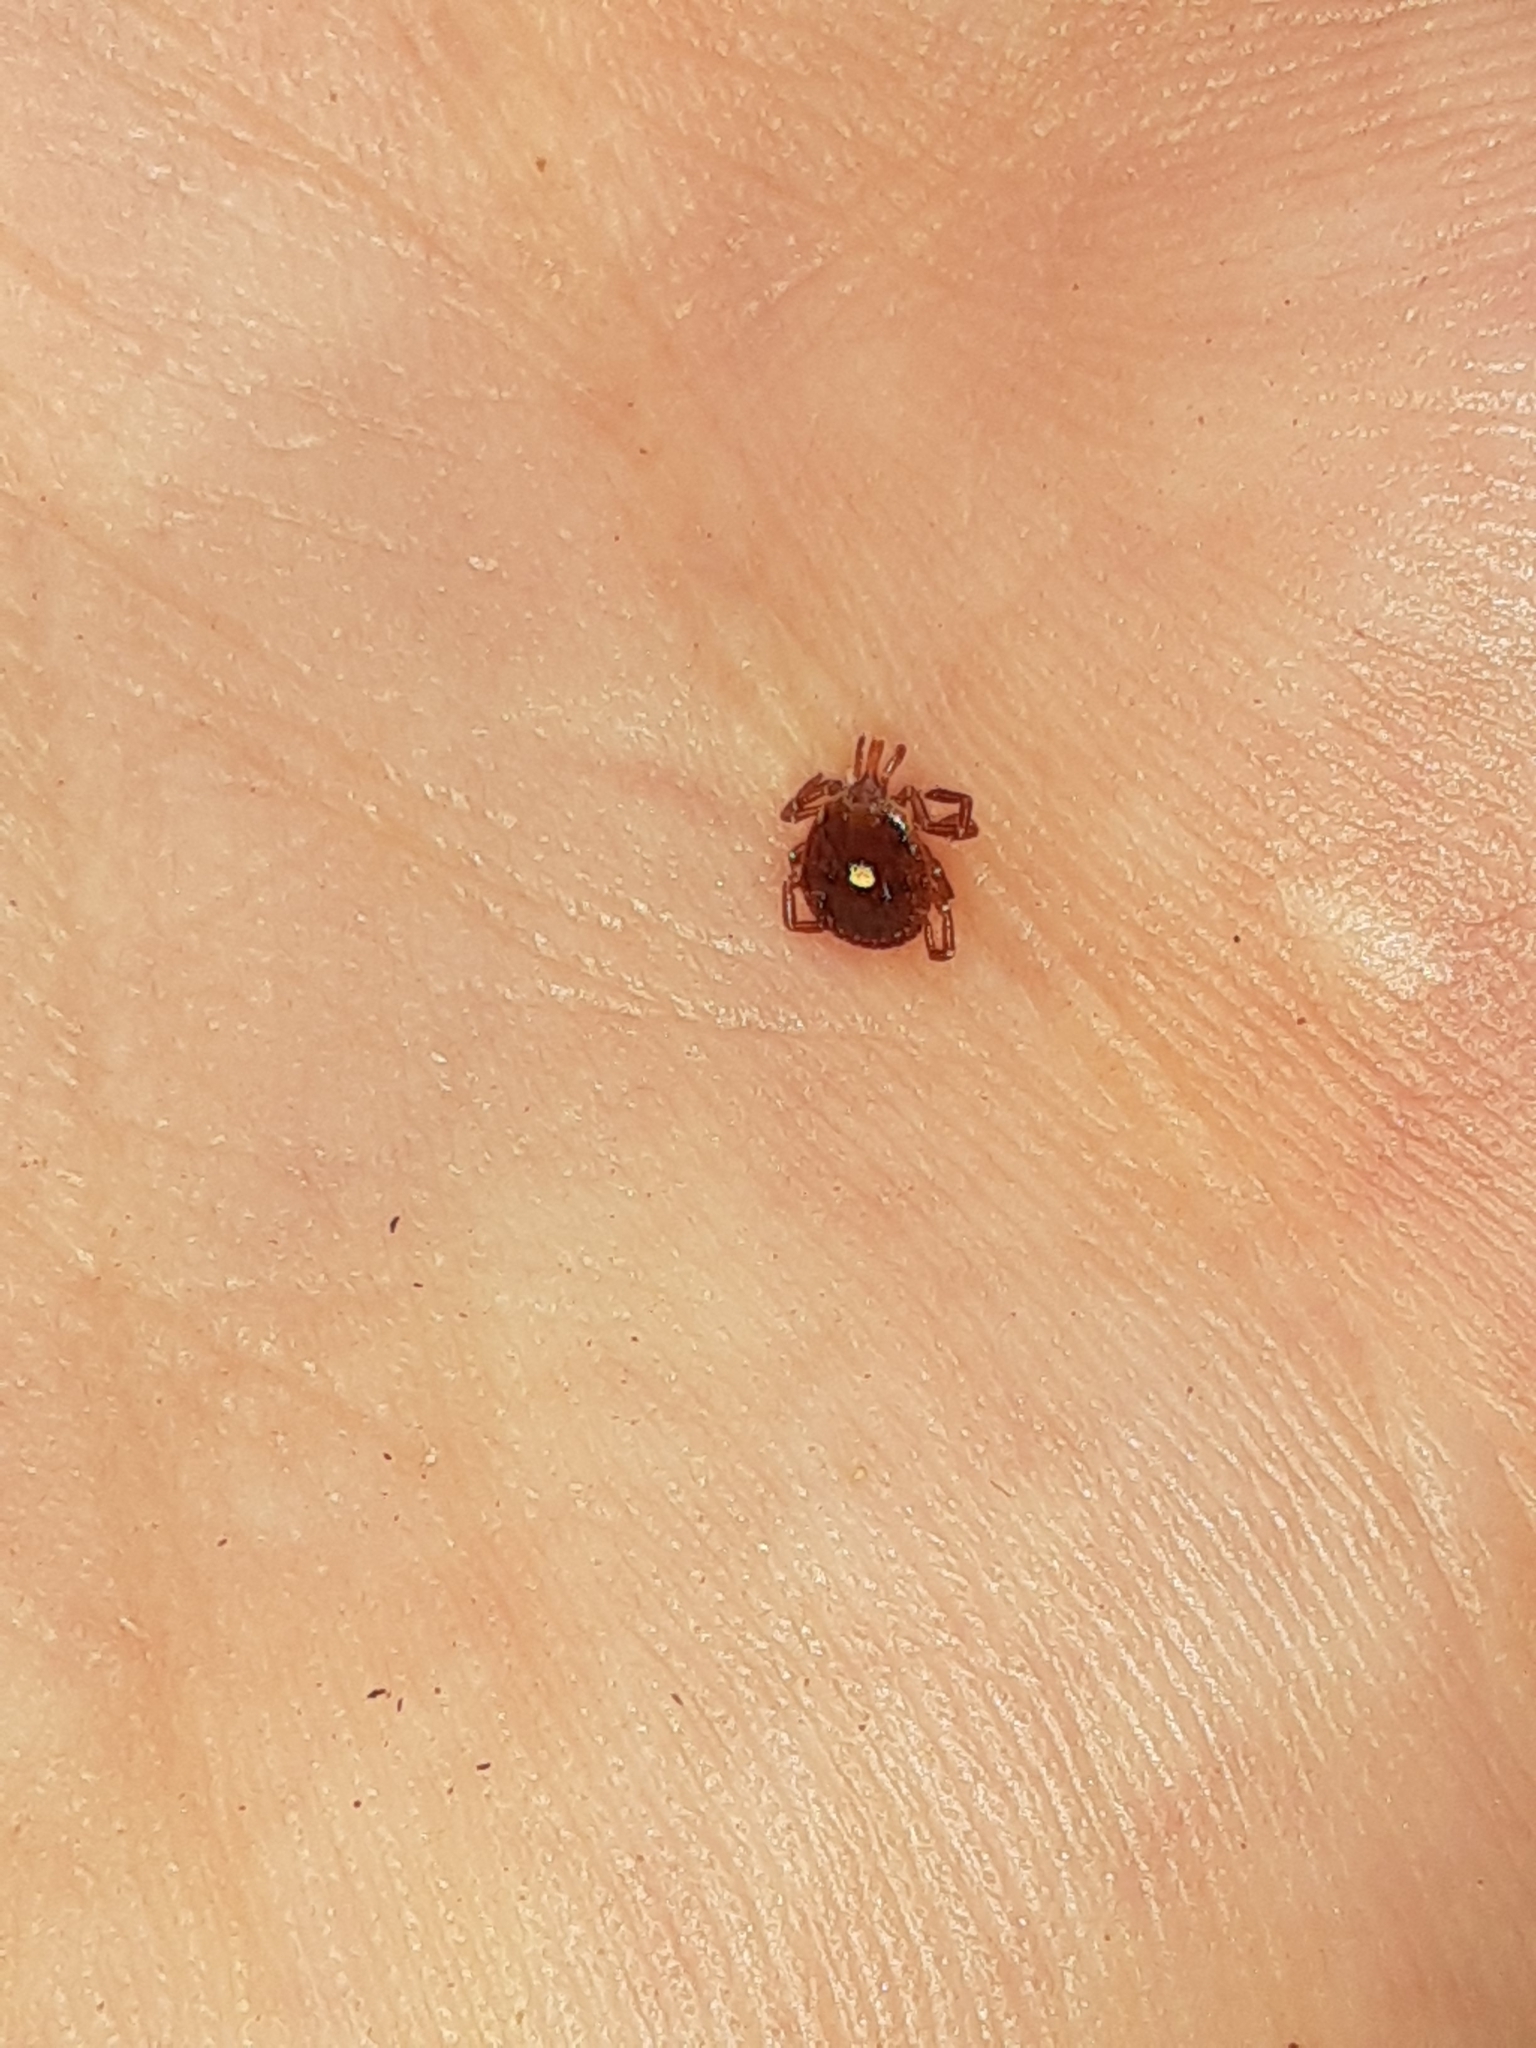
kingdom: Animalia
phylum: Arthropoda
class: Arachnida
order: Ixodida
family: Ixodidae
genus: Amblyomma
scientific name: Amblyomma americanum
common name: Lone star tick
